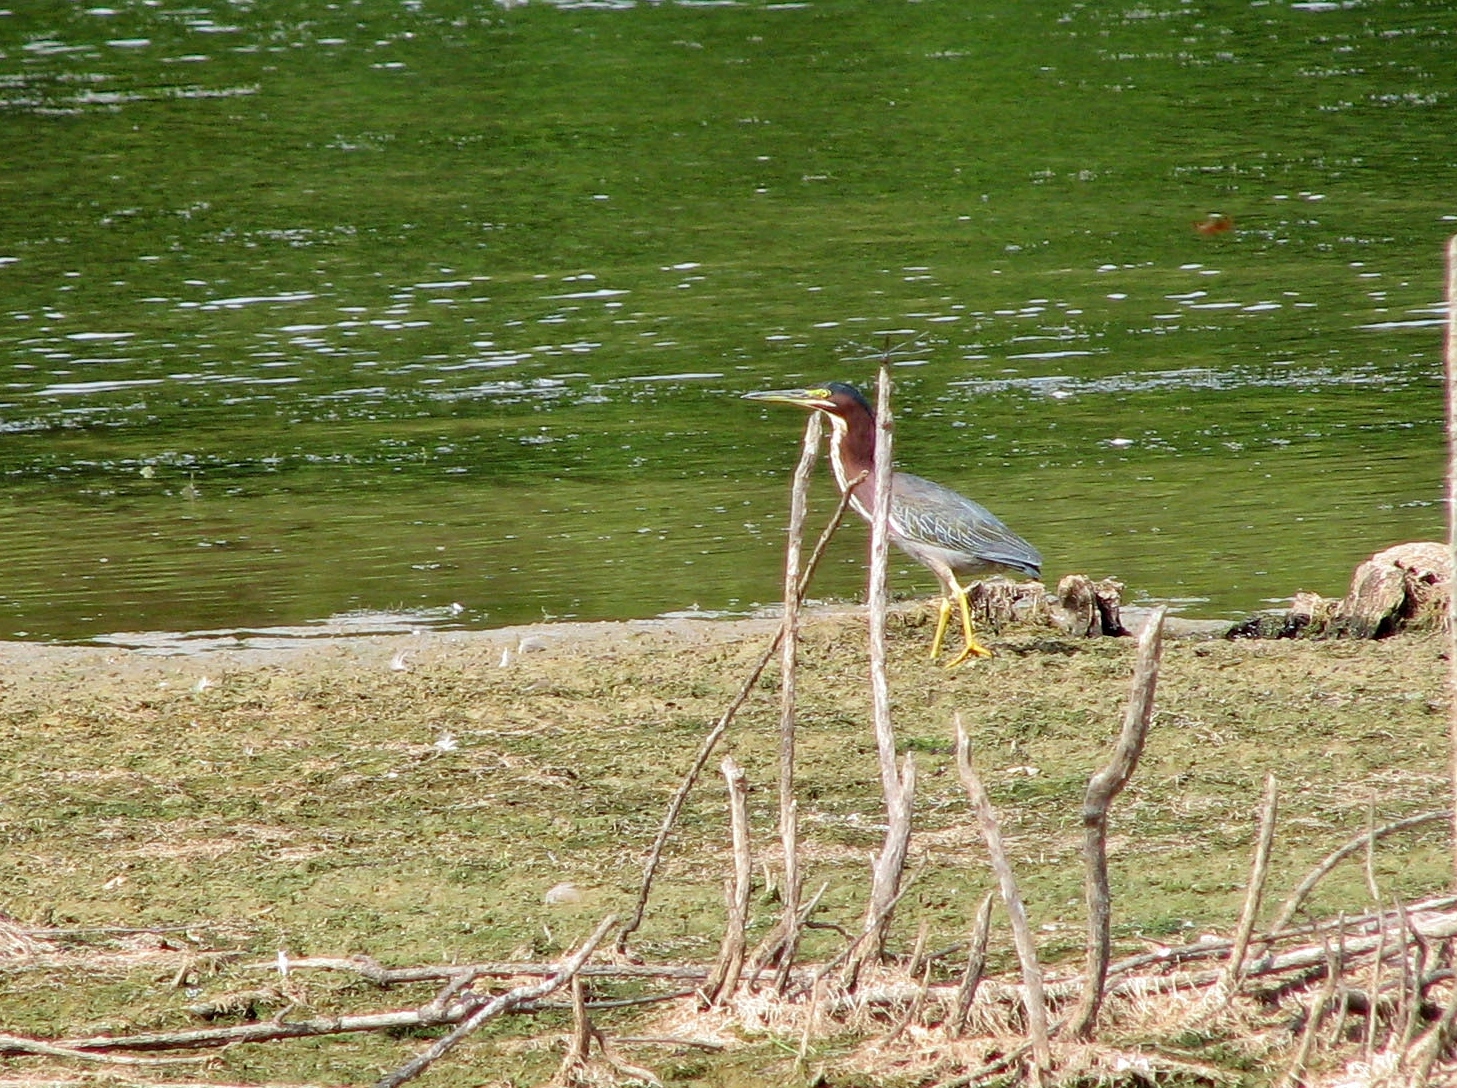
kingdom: Animalia
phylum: Chordata
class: Aves
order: Pelecaniformes
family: Ardeidae
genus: Butorides
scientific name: Butorides virescens
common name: Green heron
